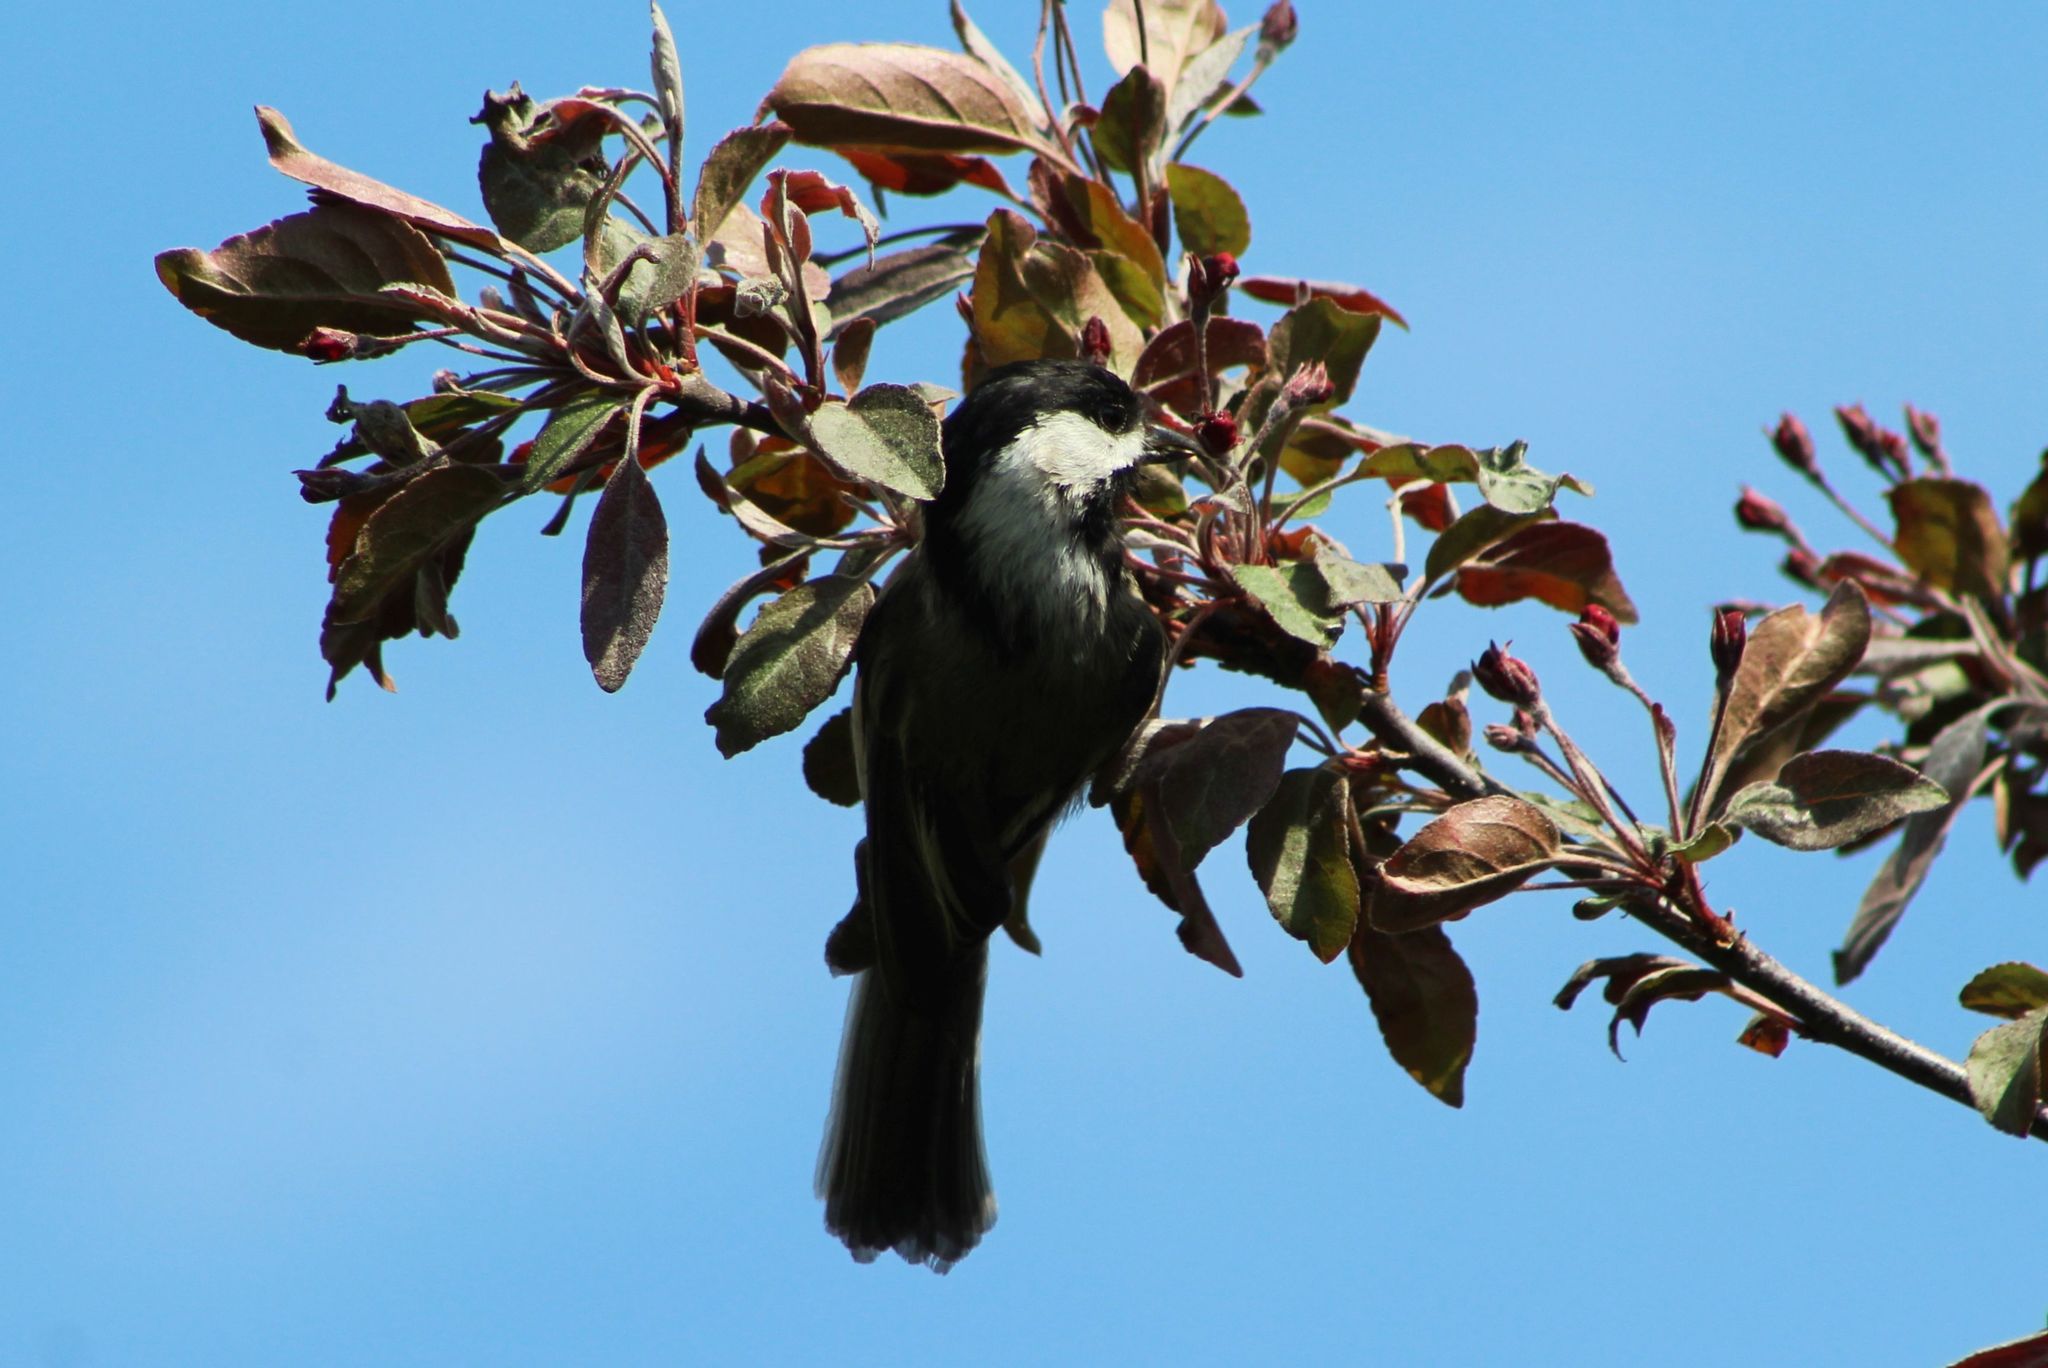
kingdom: Animalia
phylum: Chordata
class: Aves
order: Passeriformes
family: Paridae
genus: Poecile
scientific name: Poecile atricapillus
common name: Black-capped chickadee
